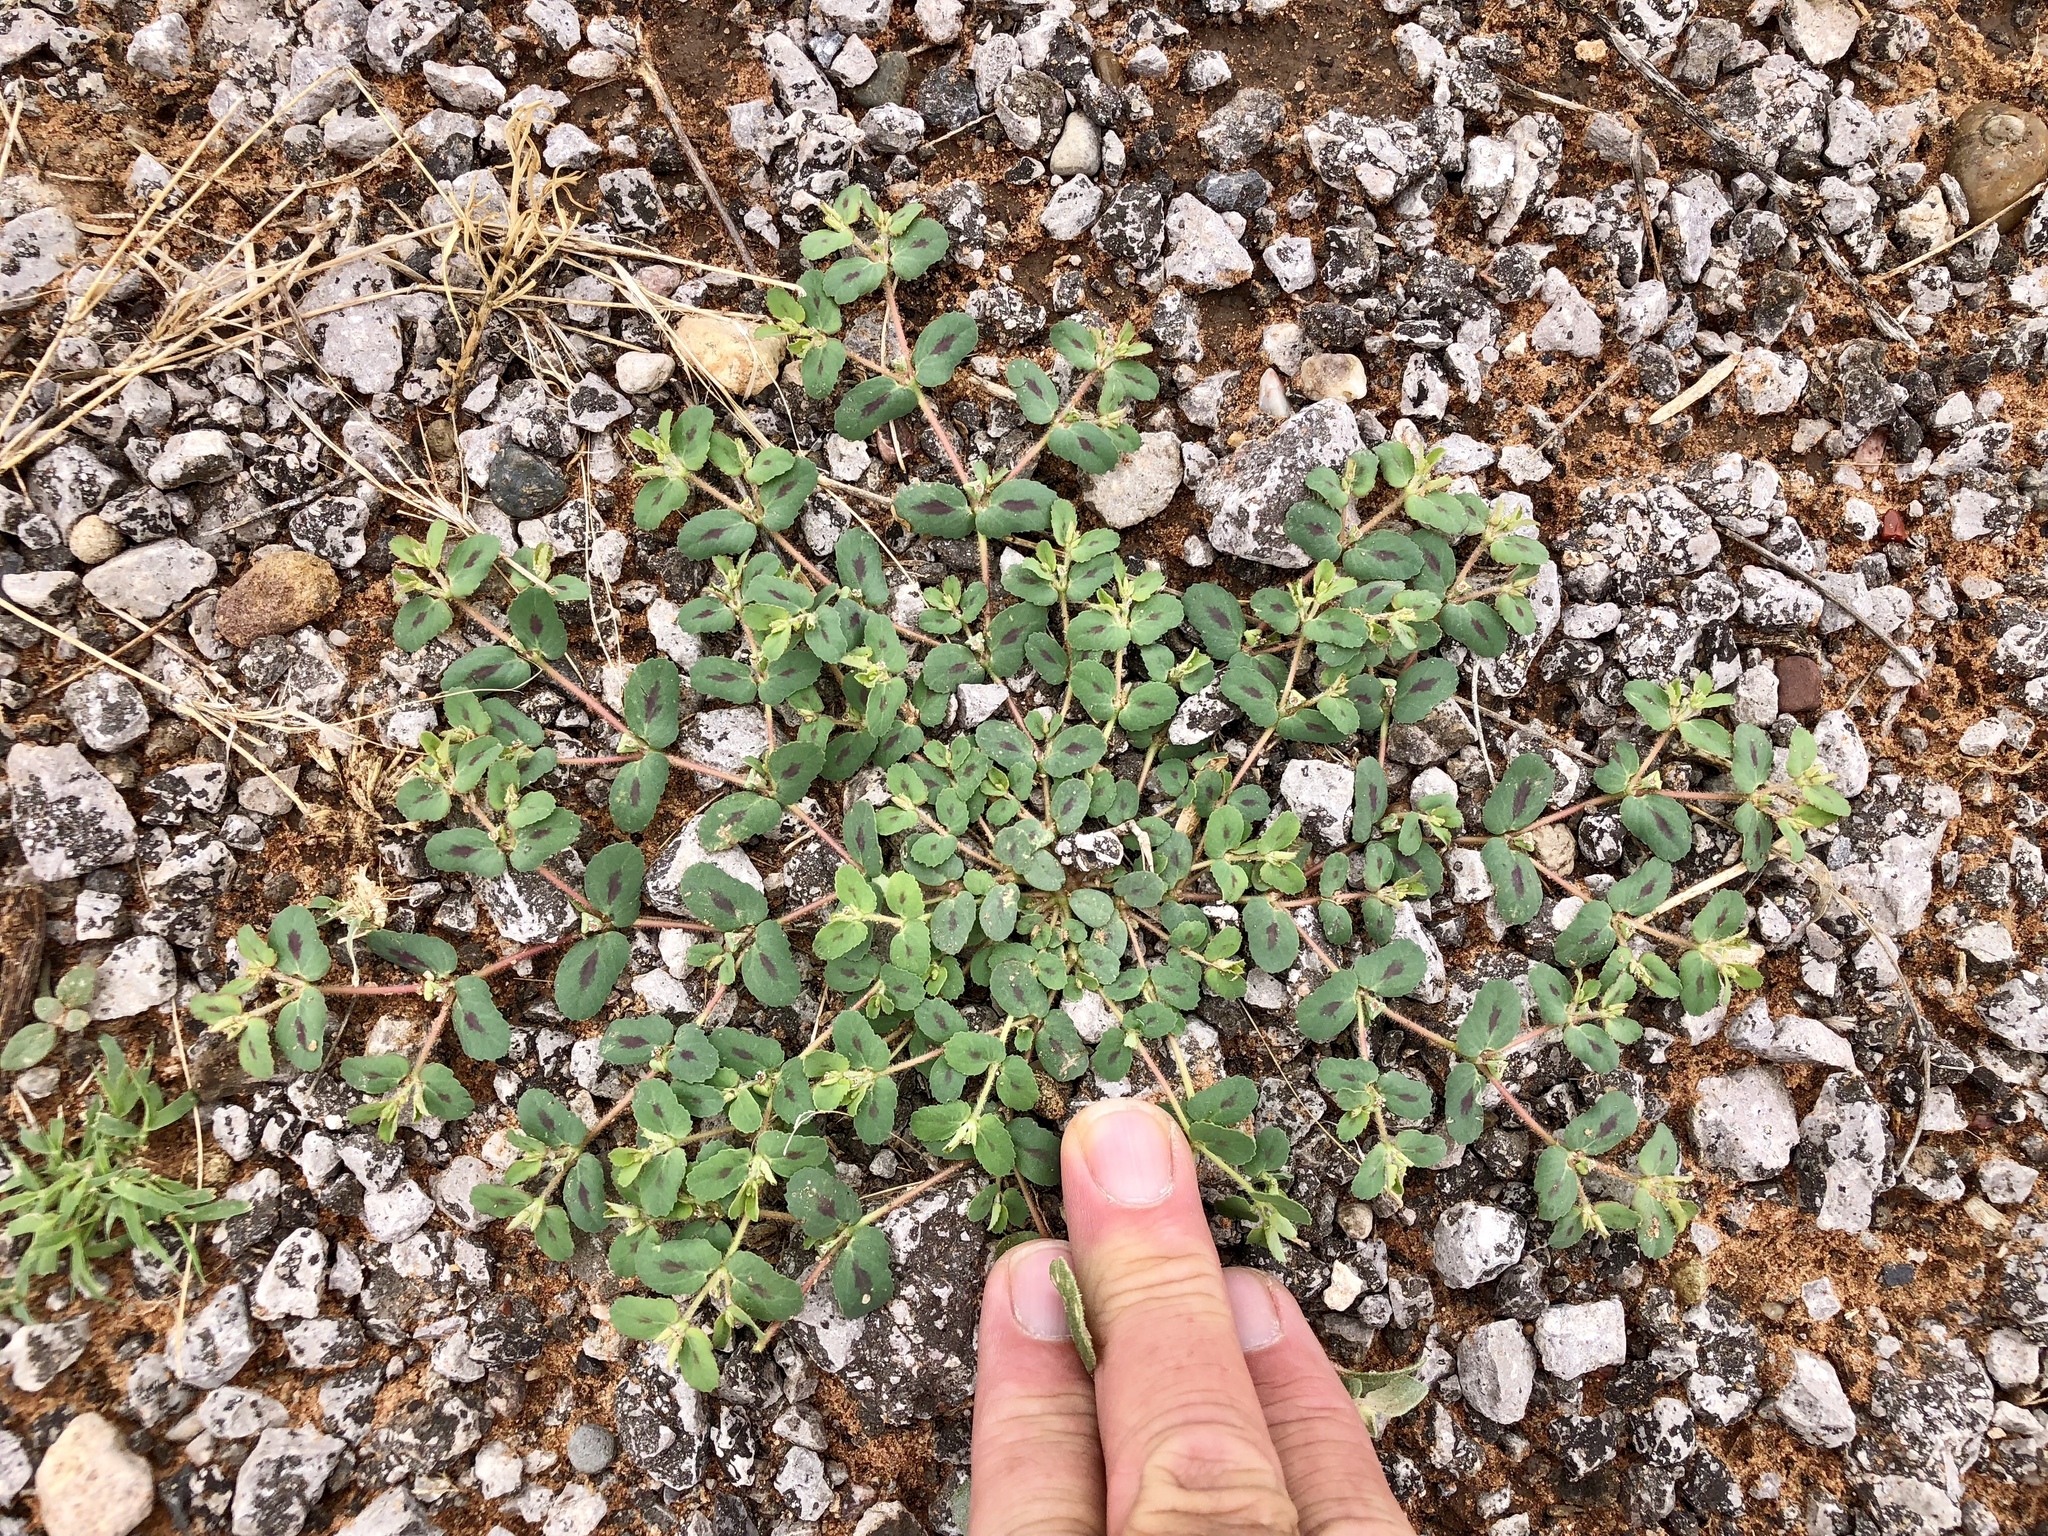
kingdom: Plantae
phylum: Tracheophyta
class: Magnoliopsida
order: Malpighiales
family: Euphorbiaceae
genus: Euphorbia
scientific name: Euphorbia serrula
